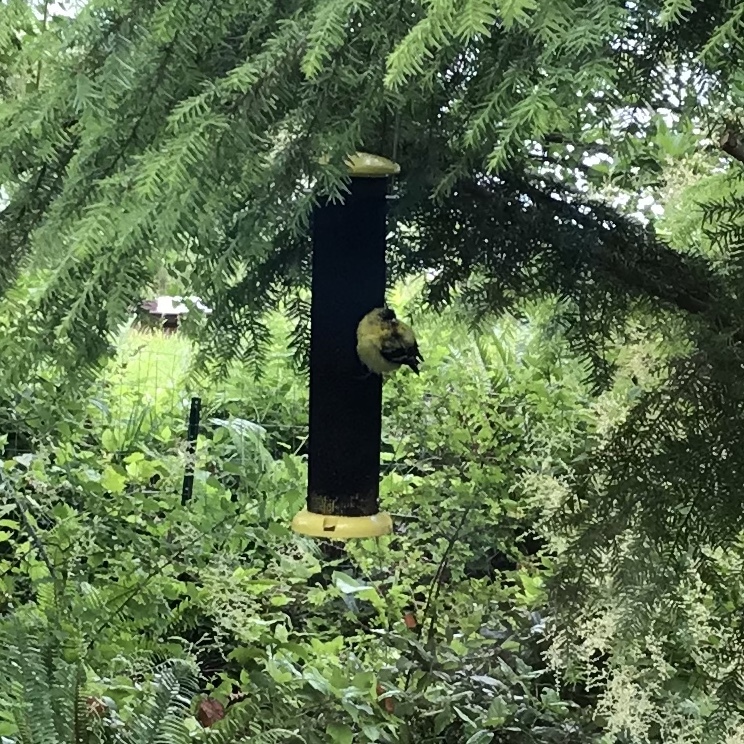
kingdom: Animalia
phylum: Chordata
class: Aves
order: Passeriformes
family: Fringillidae
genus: Spinus
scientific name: Spinus tristis
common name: American goldfinch
